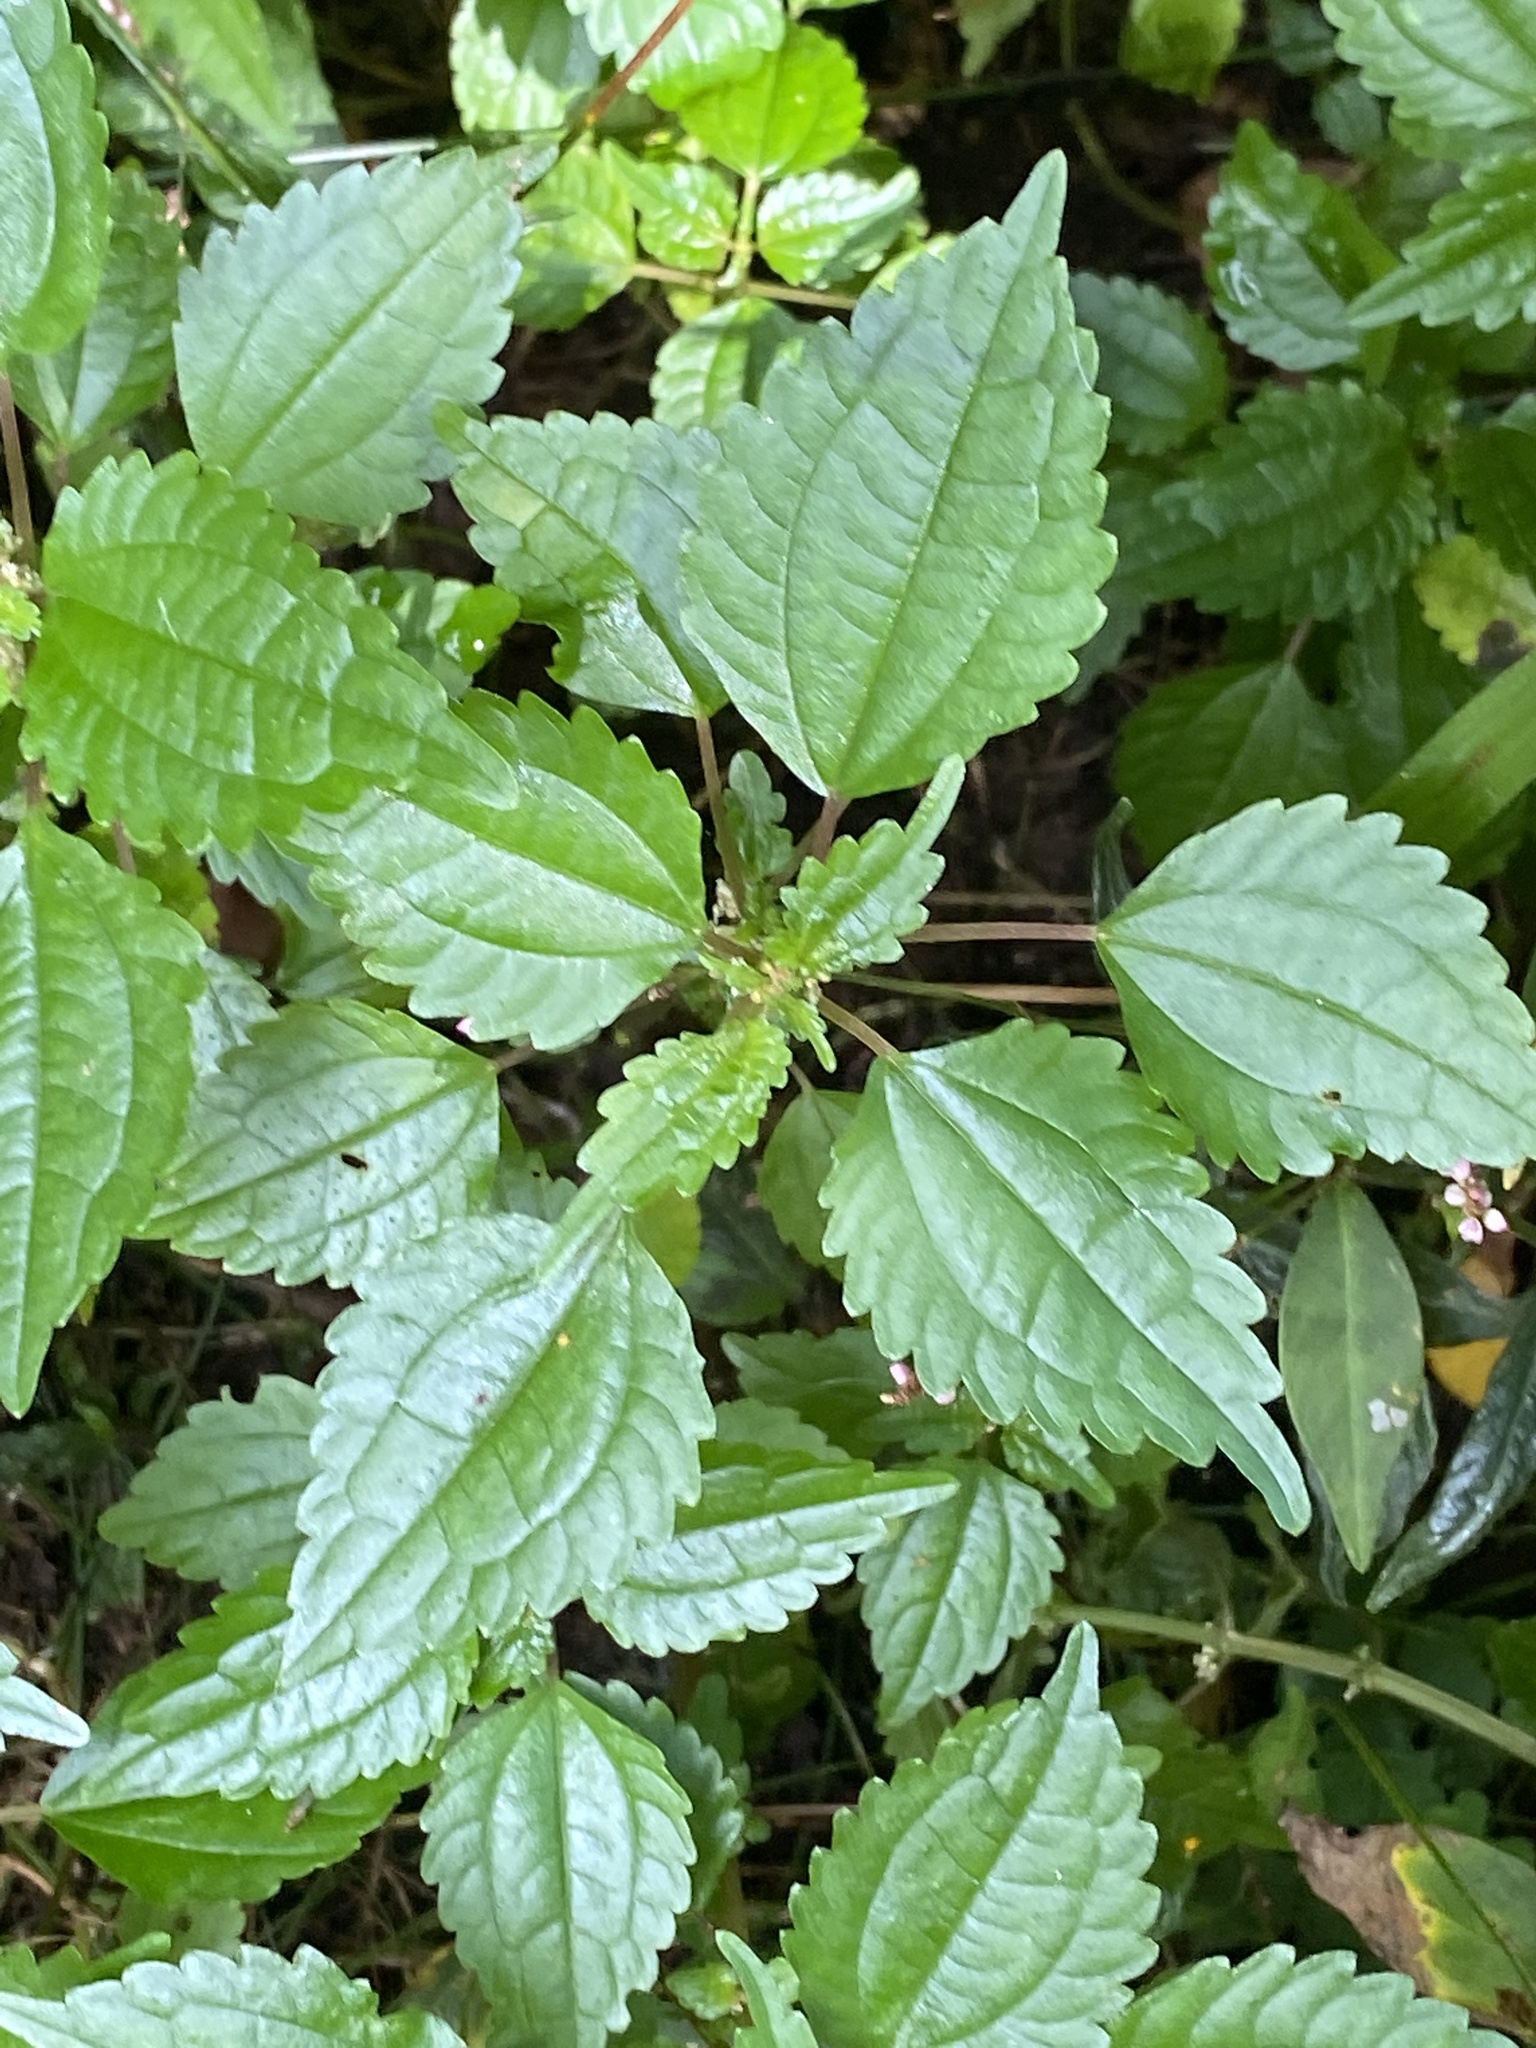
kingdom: Plantae
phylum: Tracheophyta
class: Magnoliopsida
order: Rosales
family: Urticaceae
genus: Pilea
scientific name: Pilea pumila
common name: Clearweed
